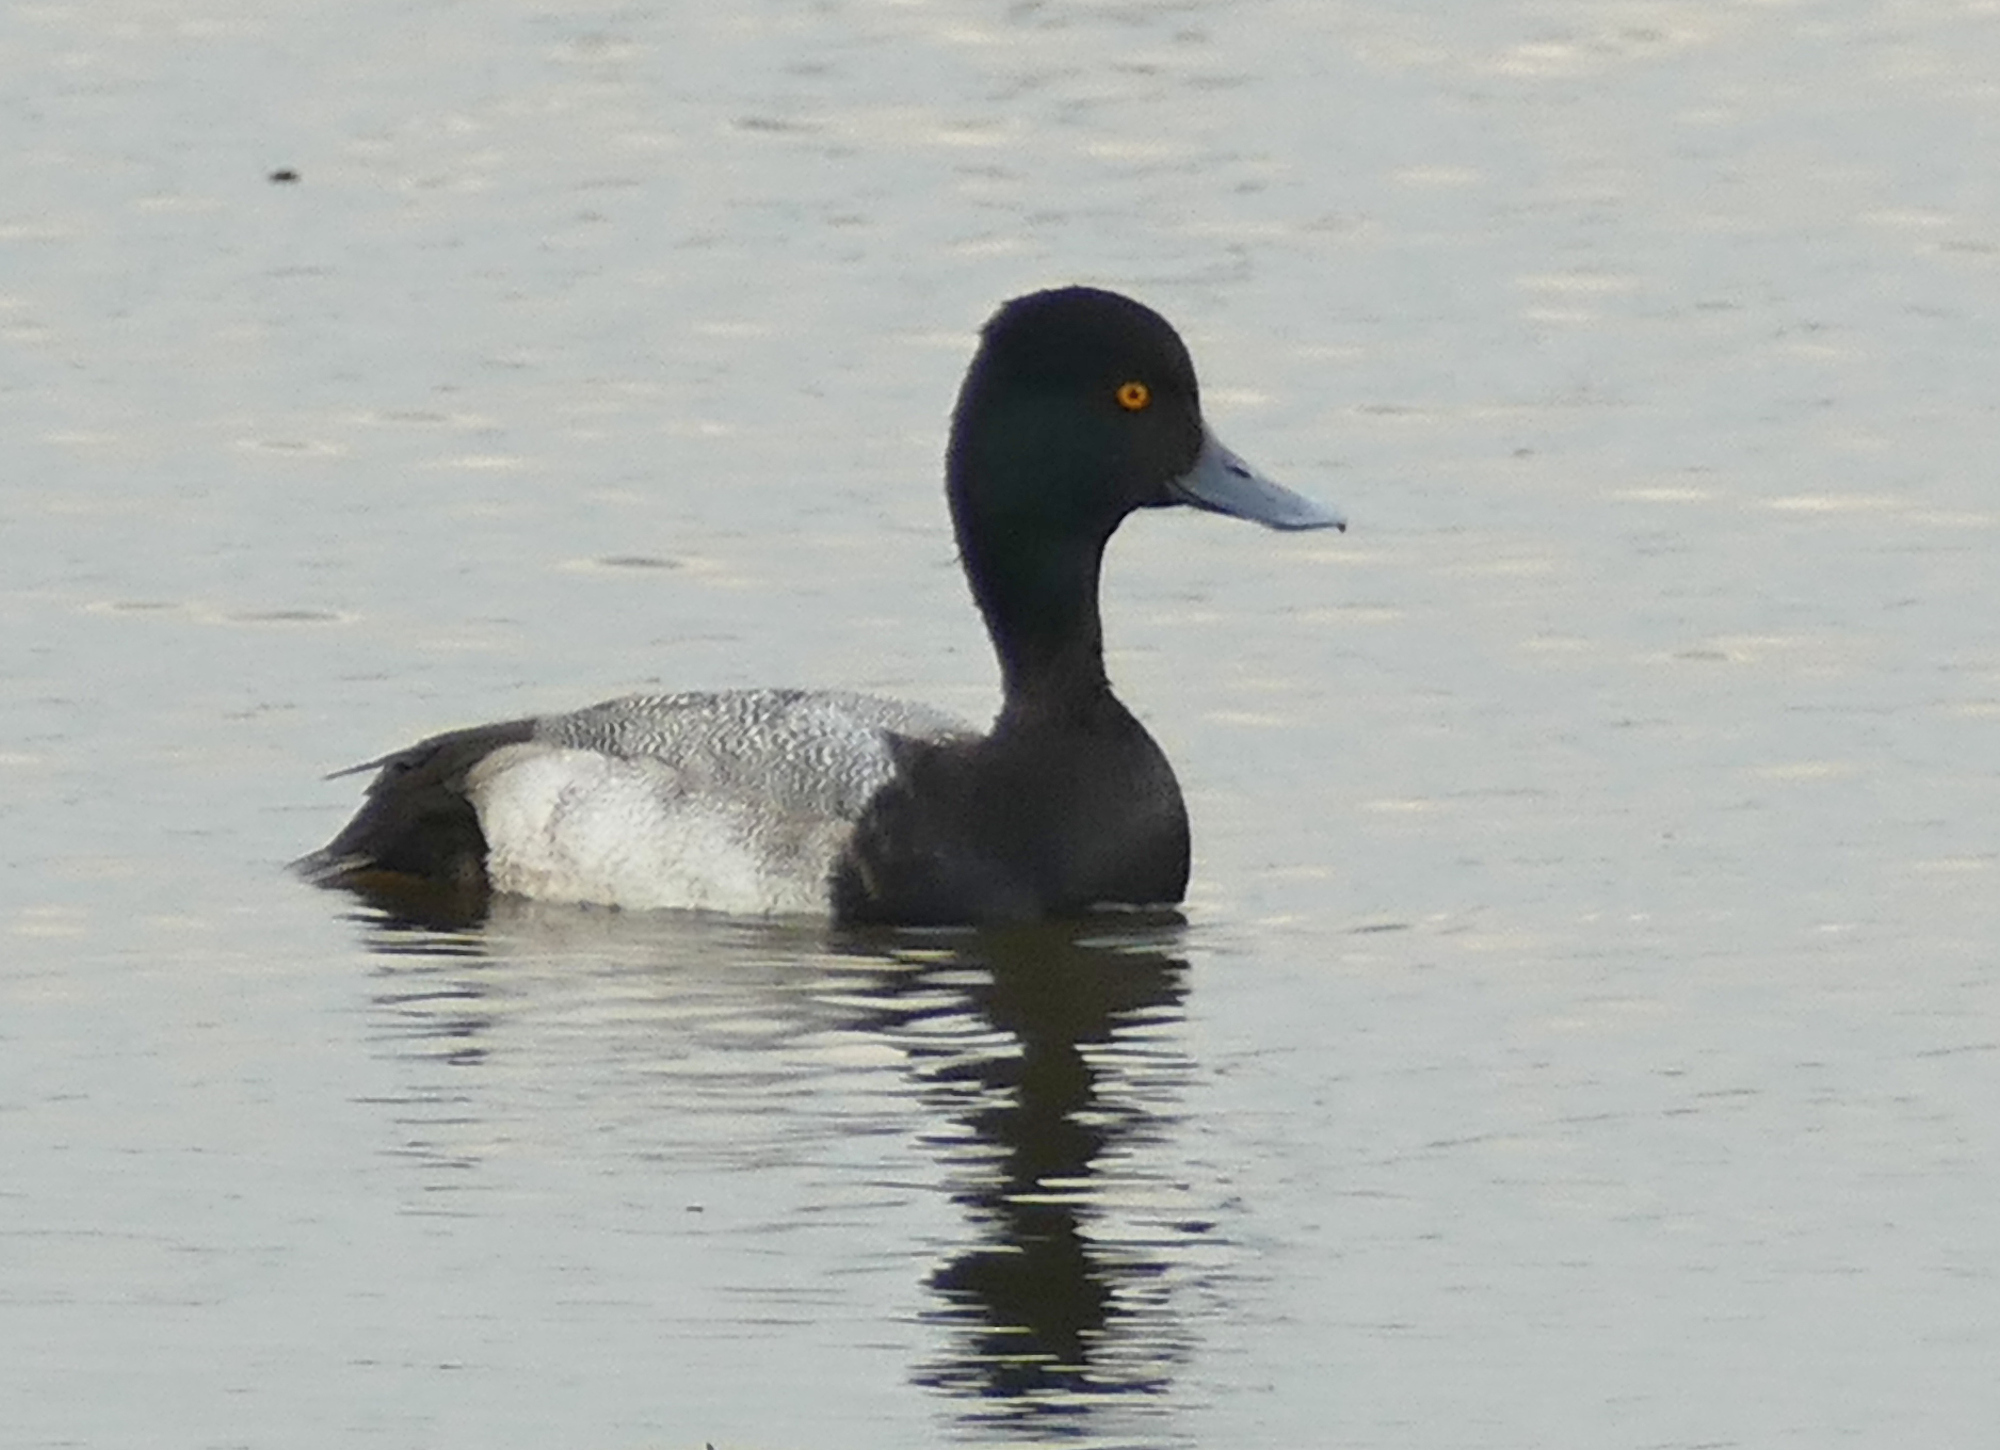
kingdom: Animalia
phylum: Chordata
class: Aves
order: Anseriformes
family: Anatidae
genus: Aythya
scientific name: Aythya affinis
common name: Lesser scaup
